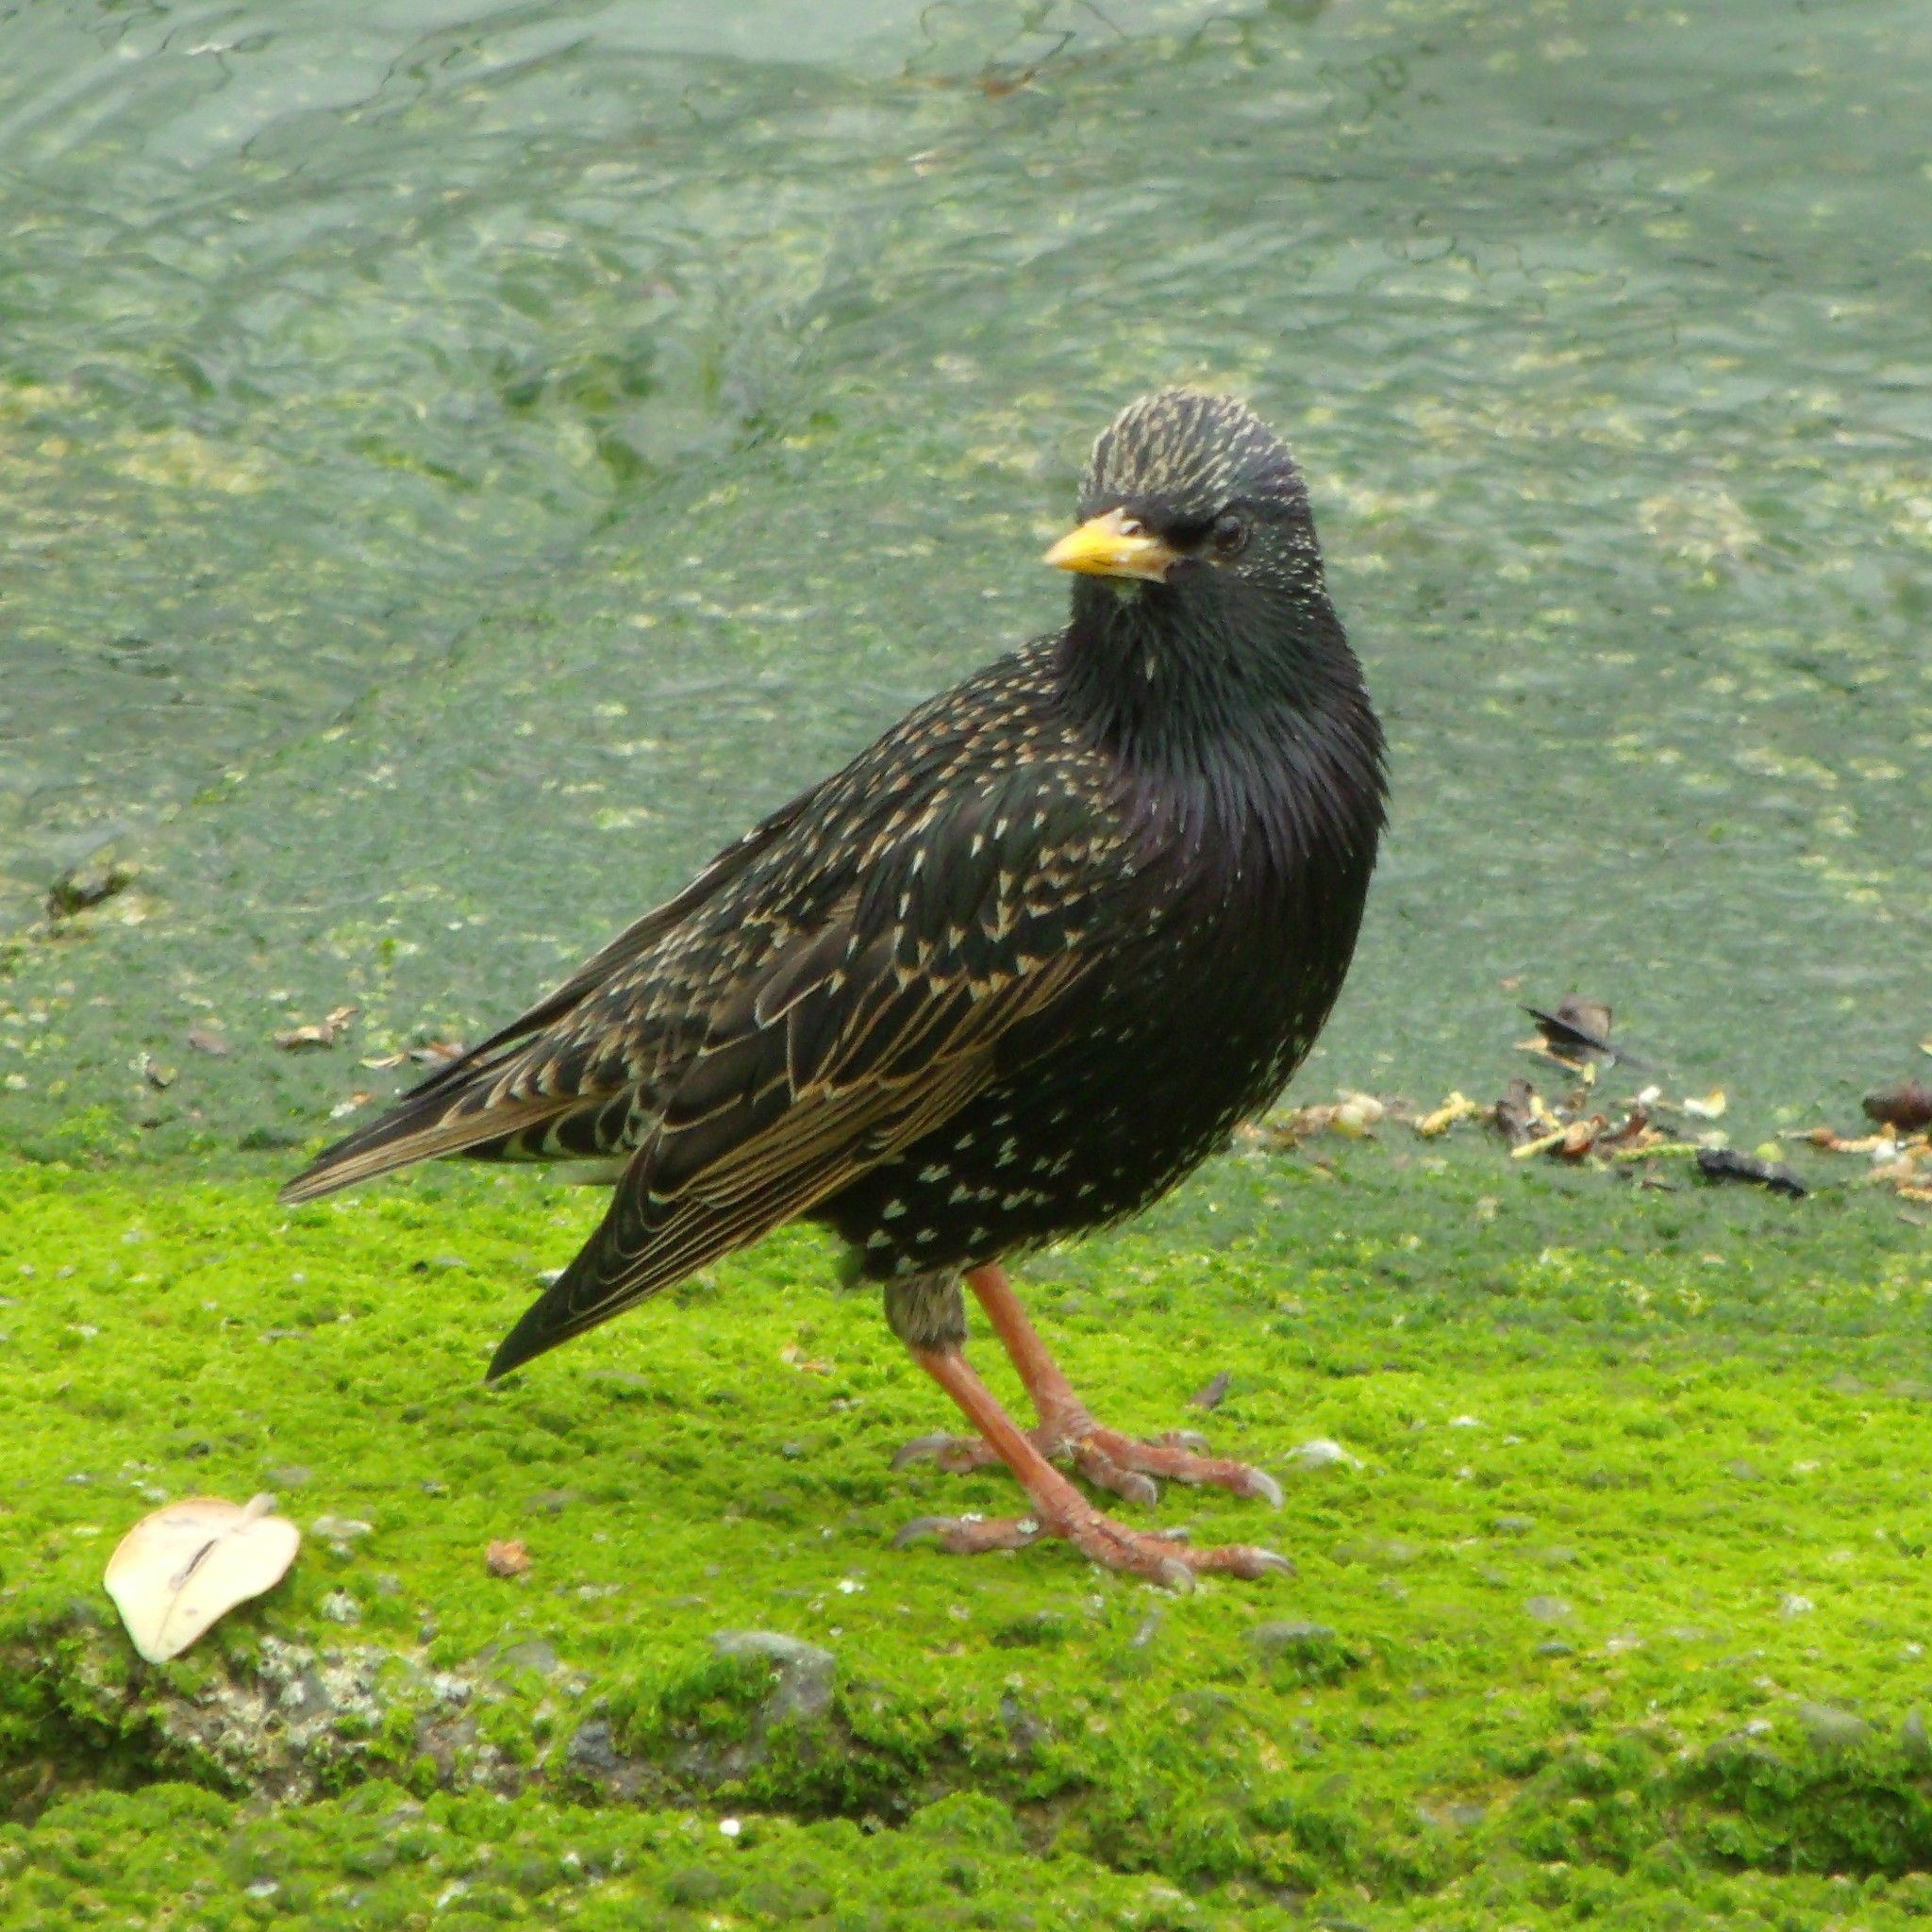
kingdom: Animalia
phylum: Chordata
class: Aves
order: Passeriformes
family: Sturnidae
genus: Sturnus
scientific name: Sturnus vulgaris
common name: Common starling
